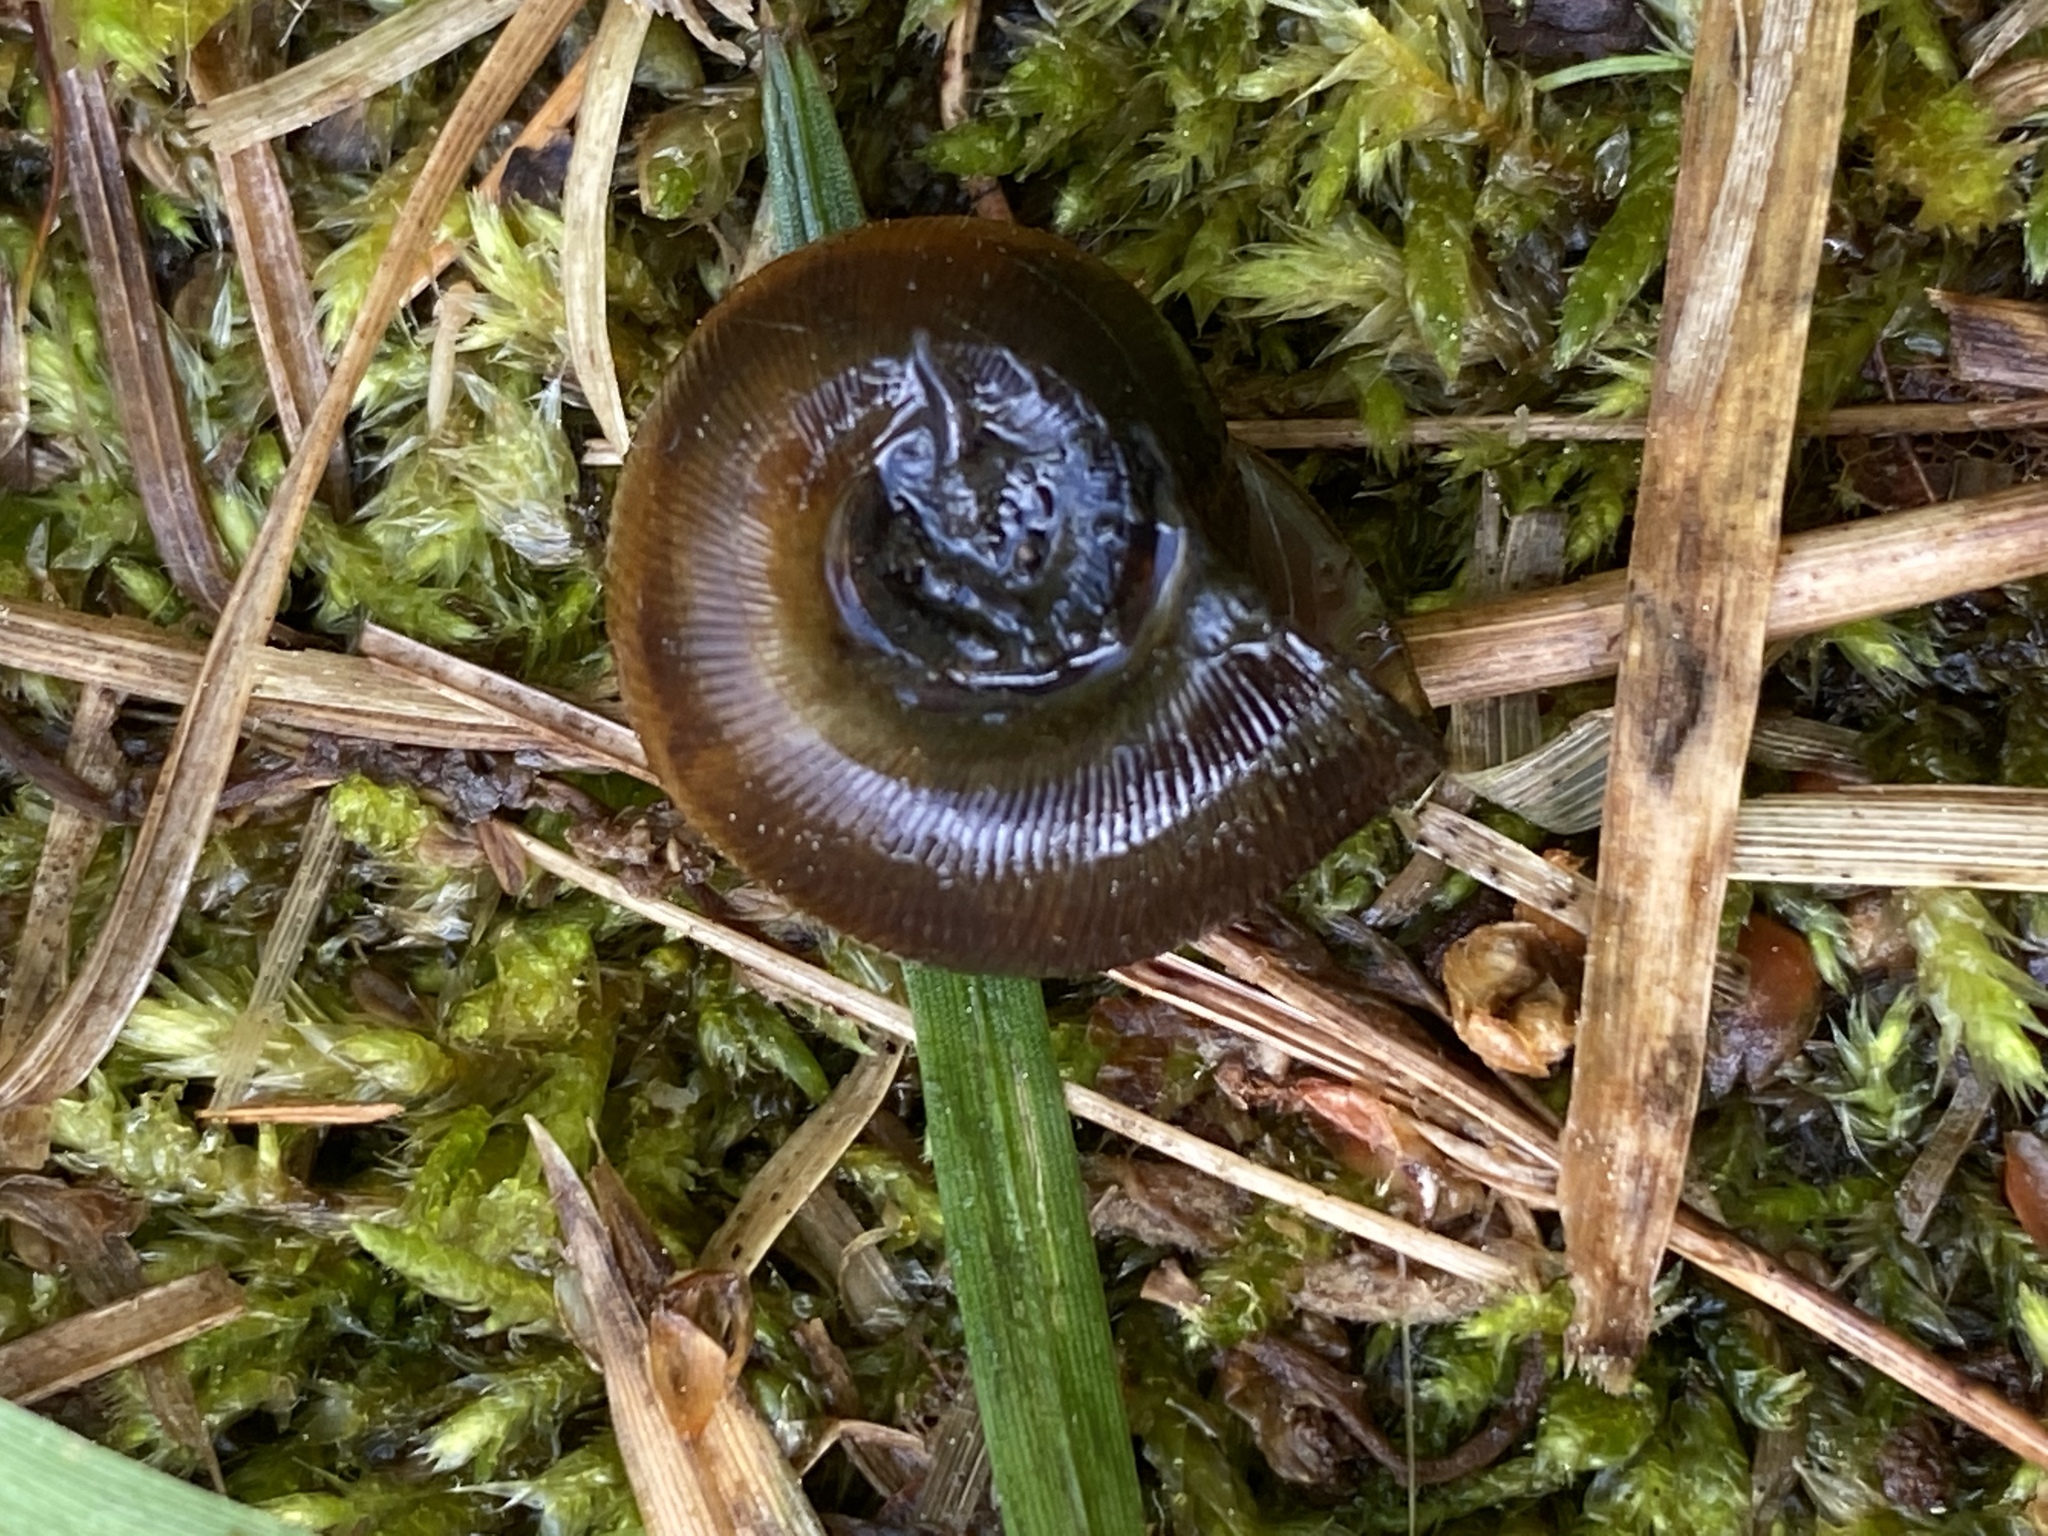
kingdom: Animalia
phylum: Mollusca
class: Gastropoda
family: Planorbidae
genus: Planorbella
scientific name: Planorbella trivolvis
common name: Marsh rams-horn
